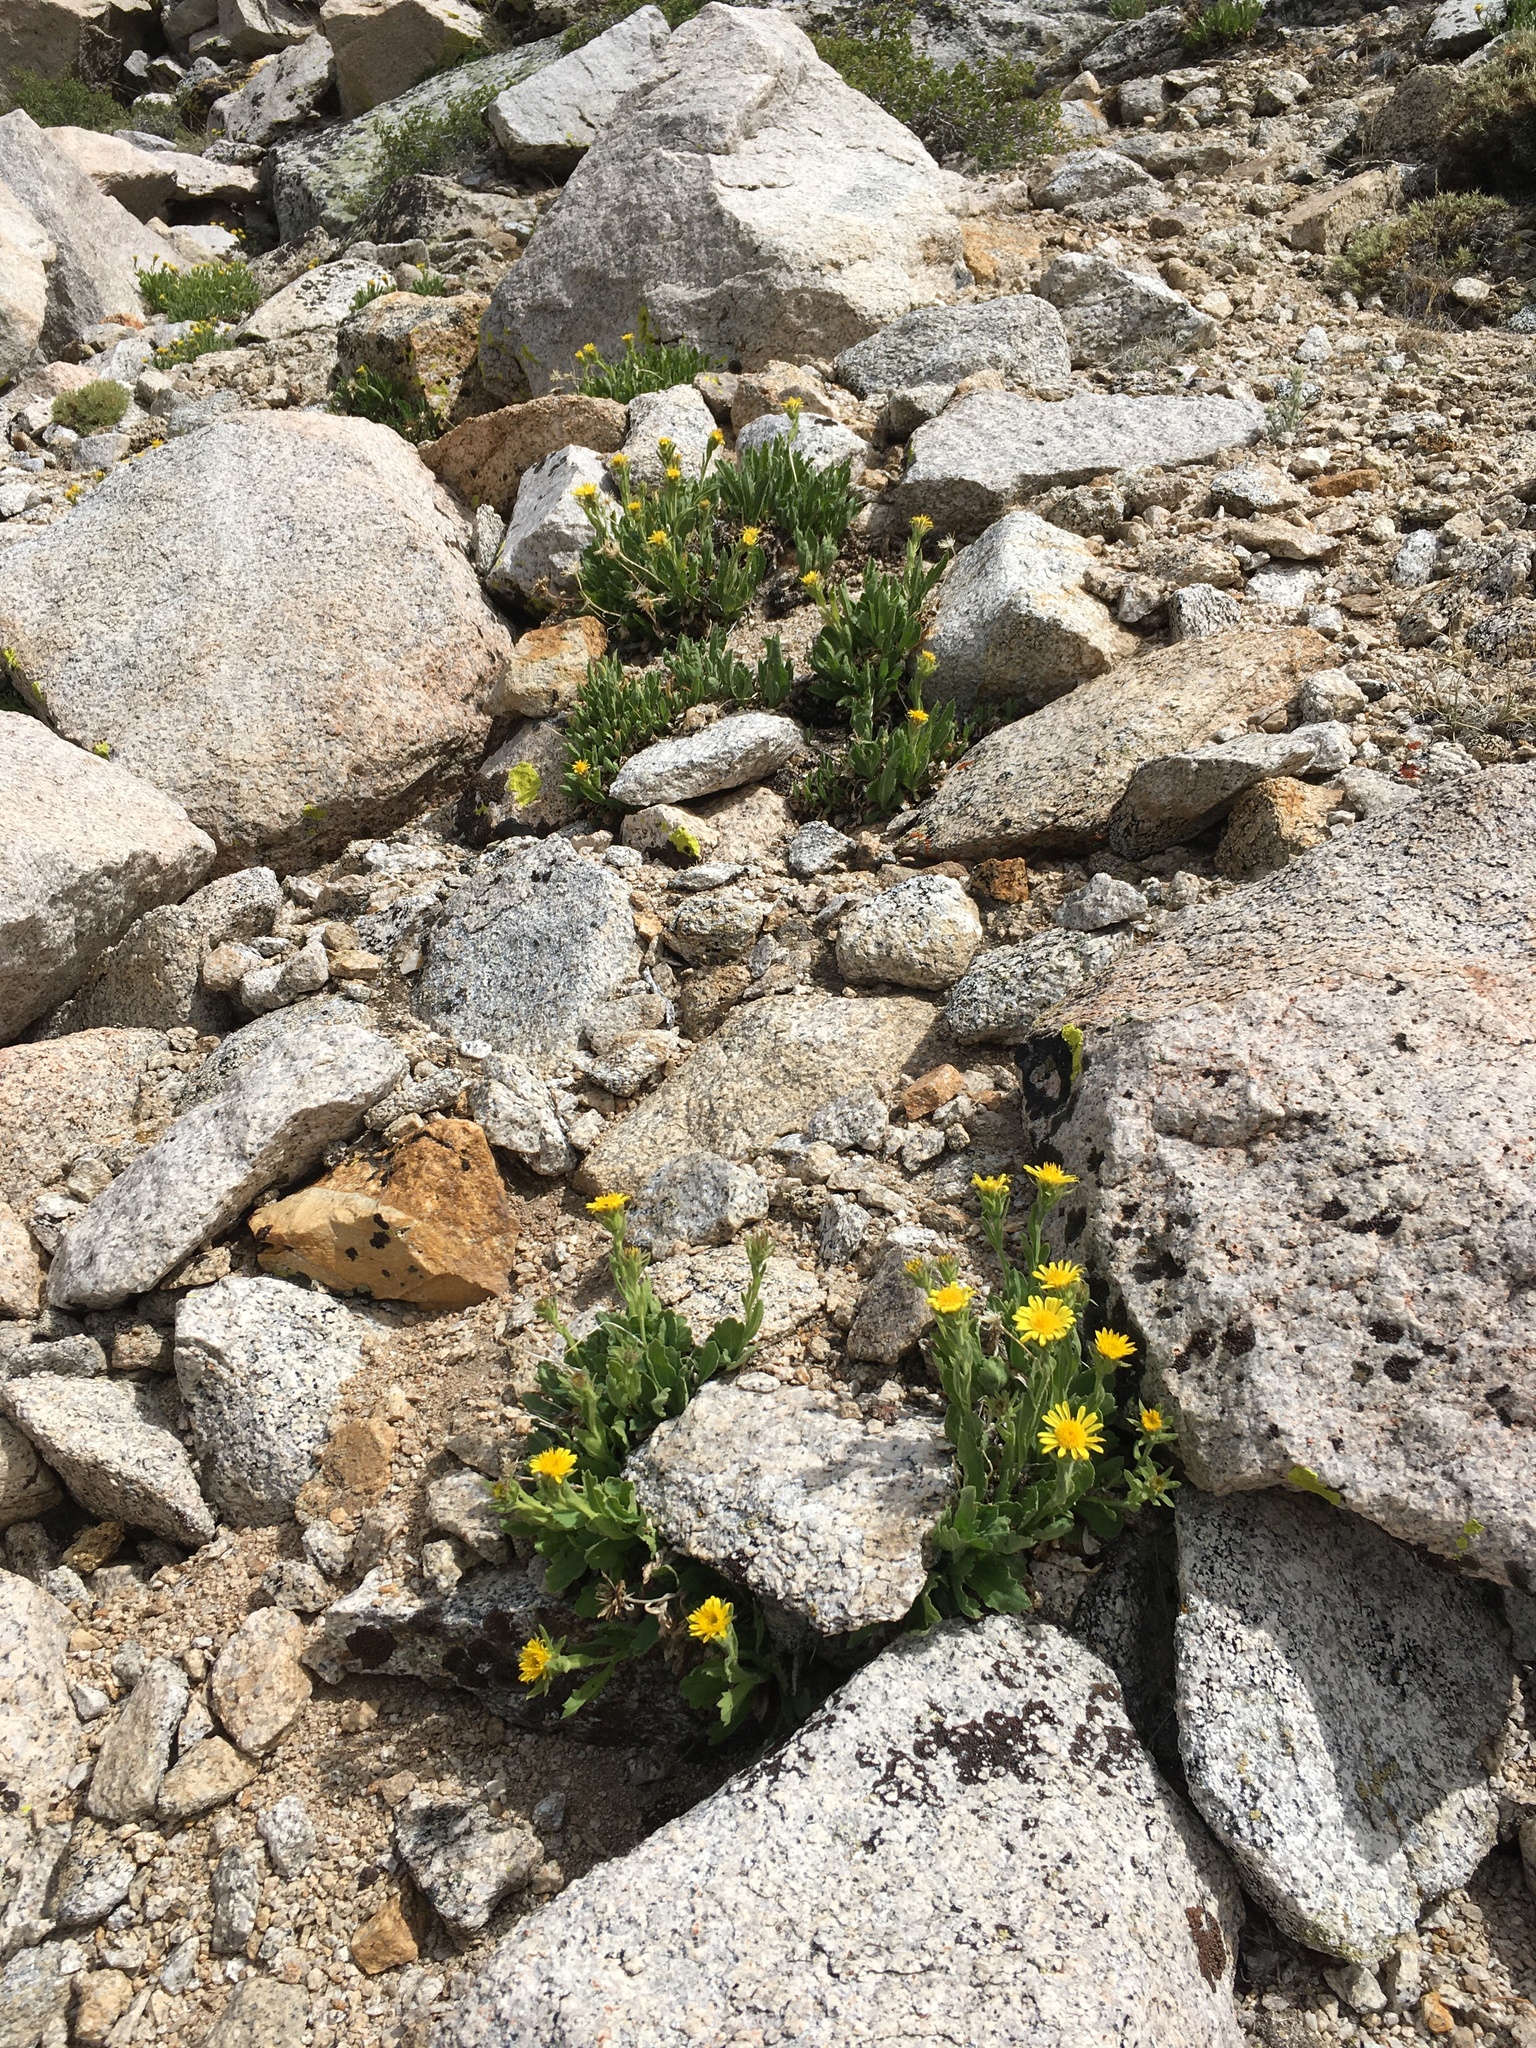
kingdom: Plantae
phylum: Tracheophyta
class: Magnoliopsida
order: Asterales
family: Asteraceae
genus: Toiyabea
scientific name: Toiyabea peirsonii
